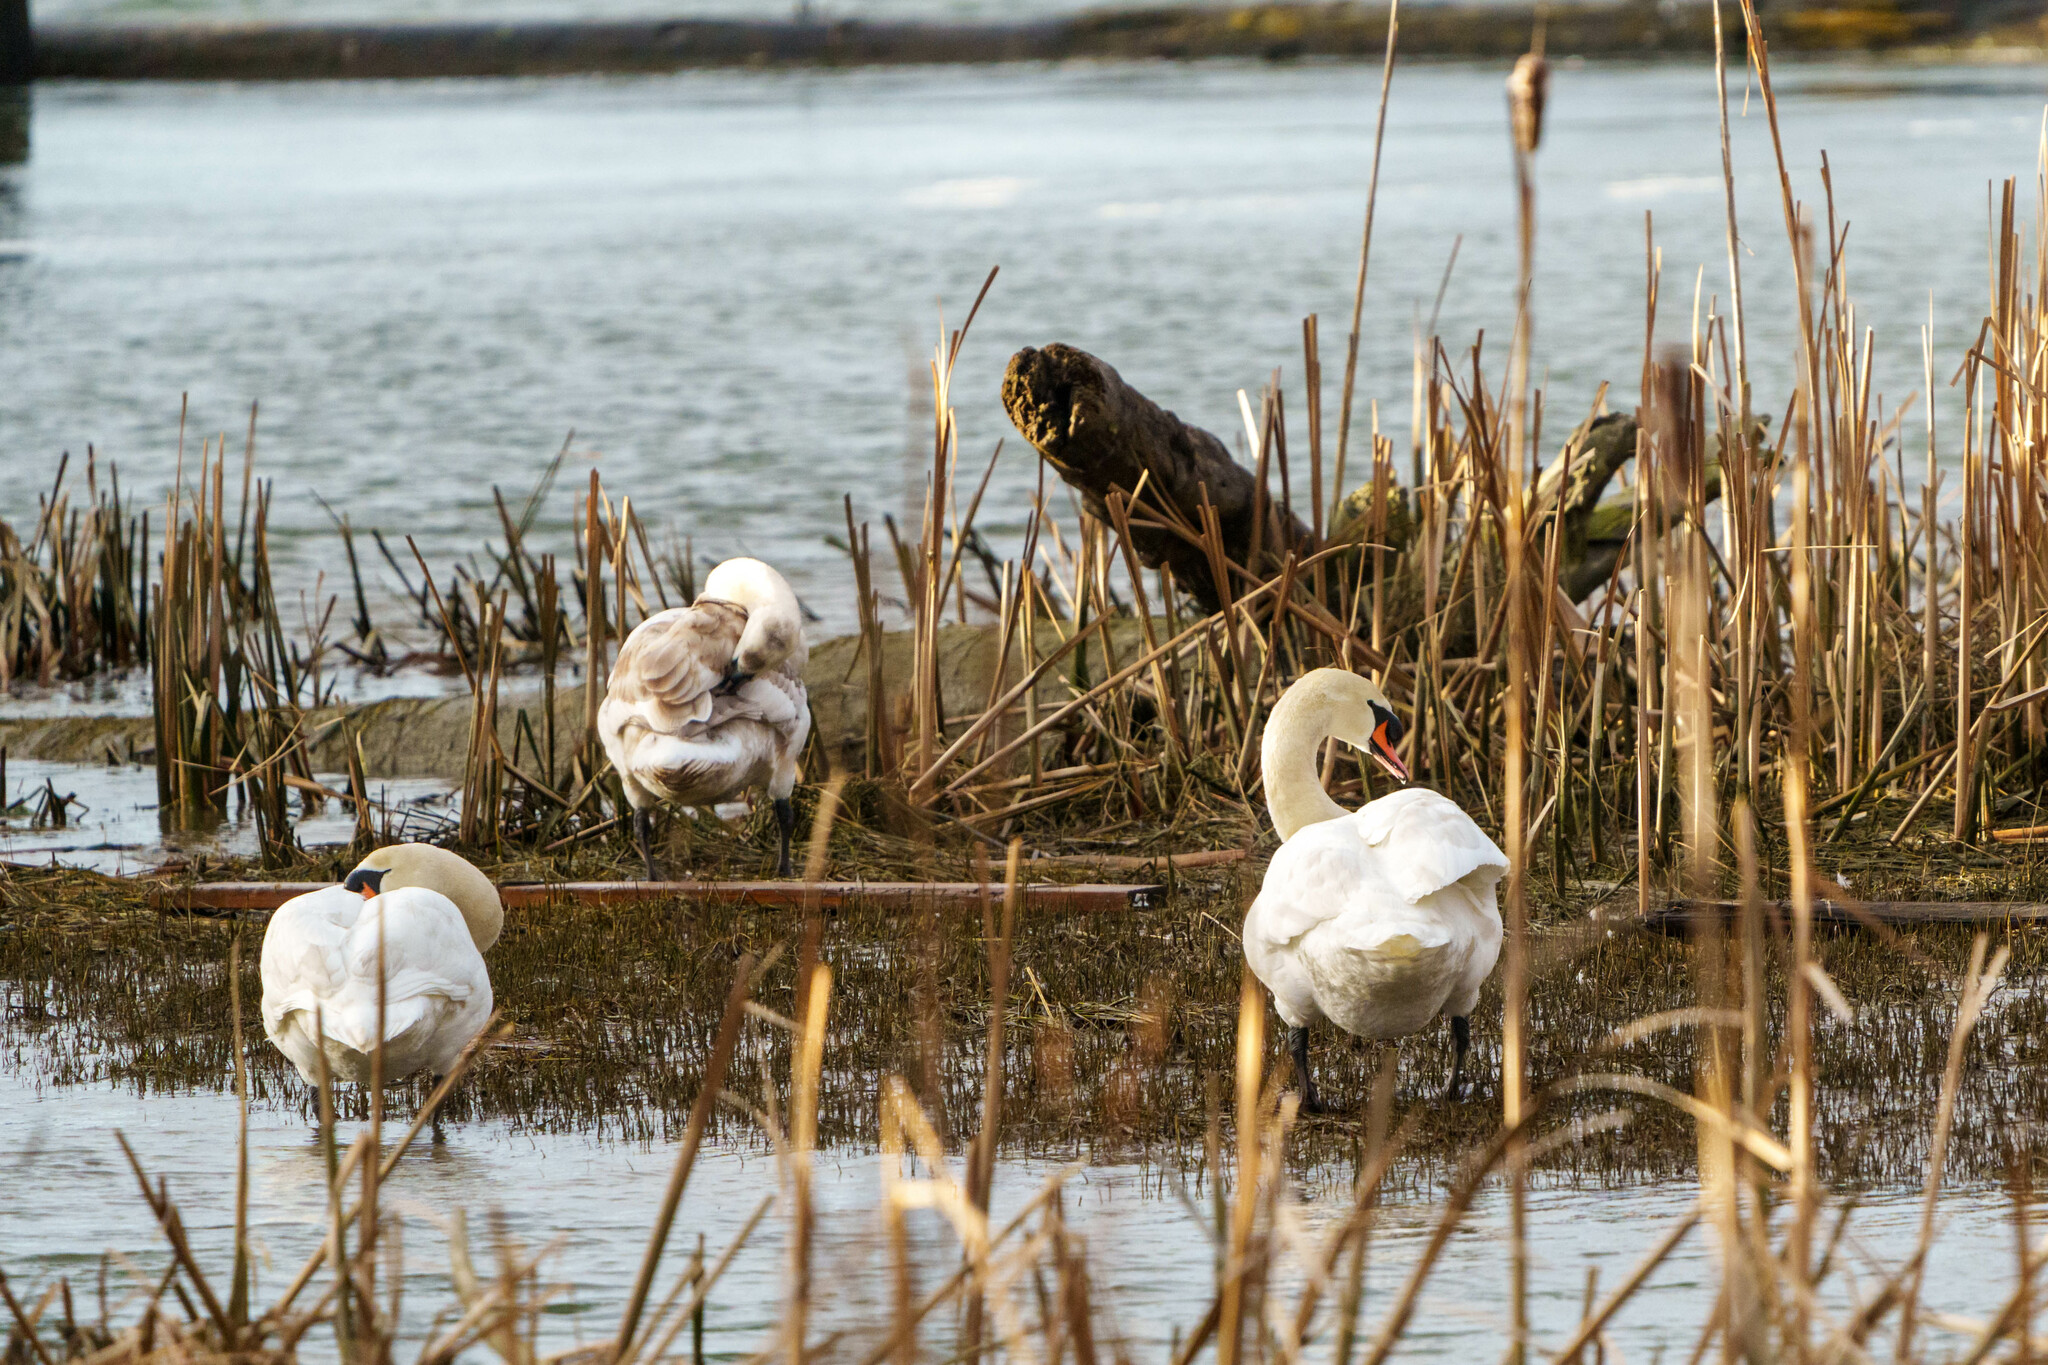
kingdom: Animalia
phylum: Chordata
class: Aves
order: Anseriformes
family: Anatidae
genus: Cygnus
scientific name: Cygnus olor
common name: Mute swan
